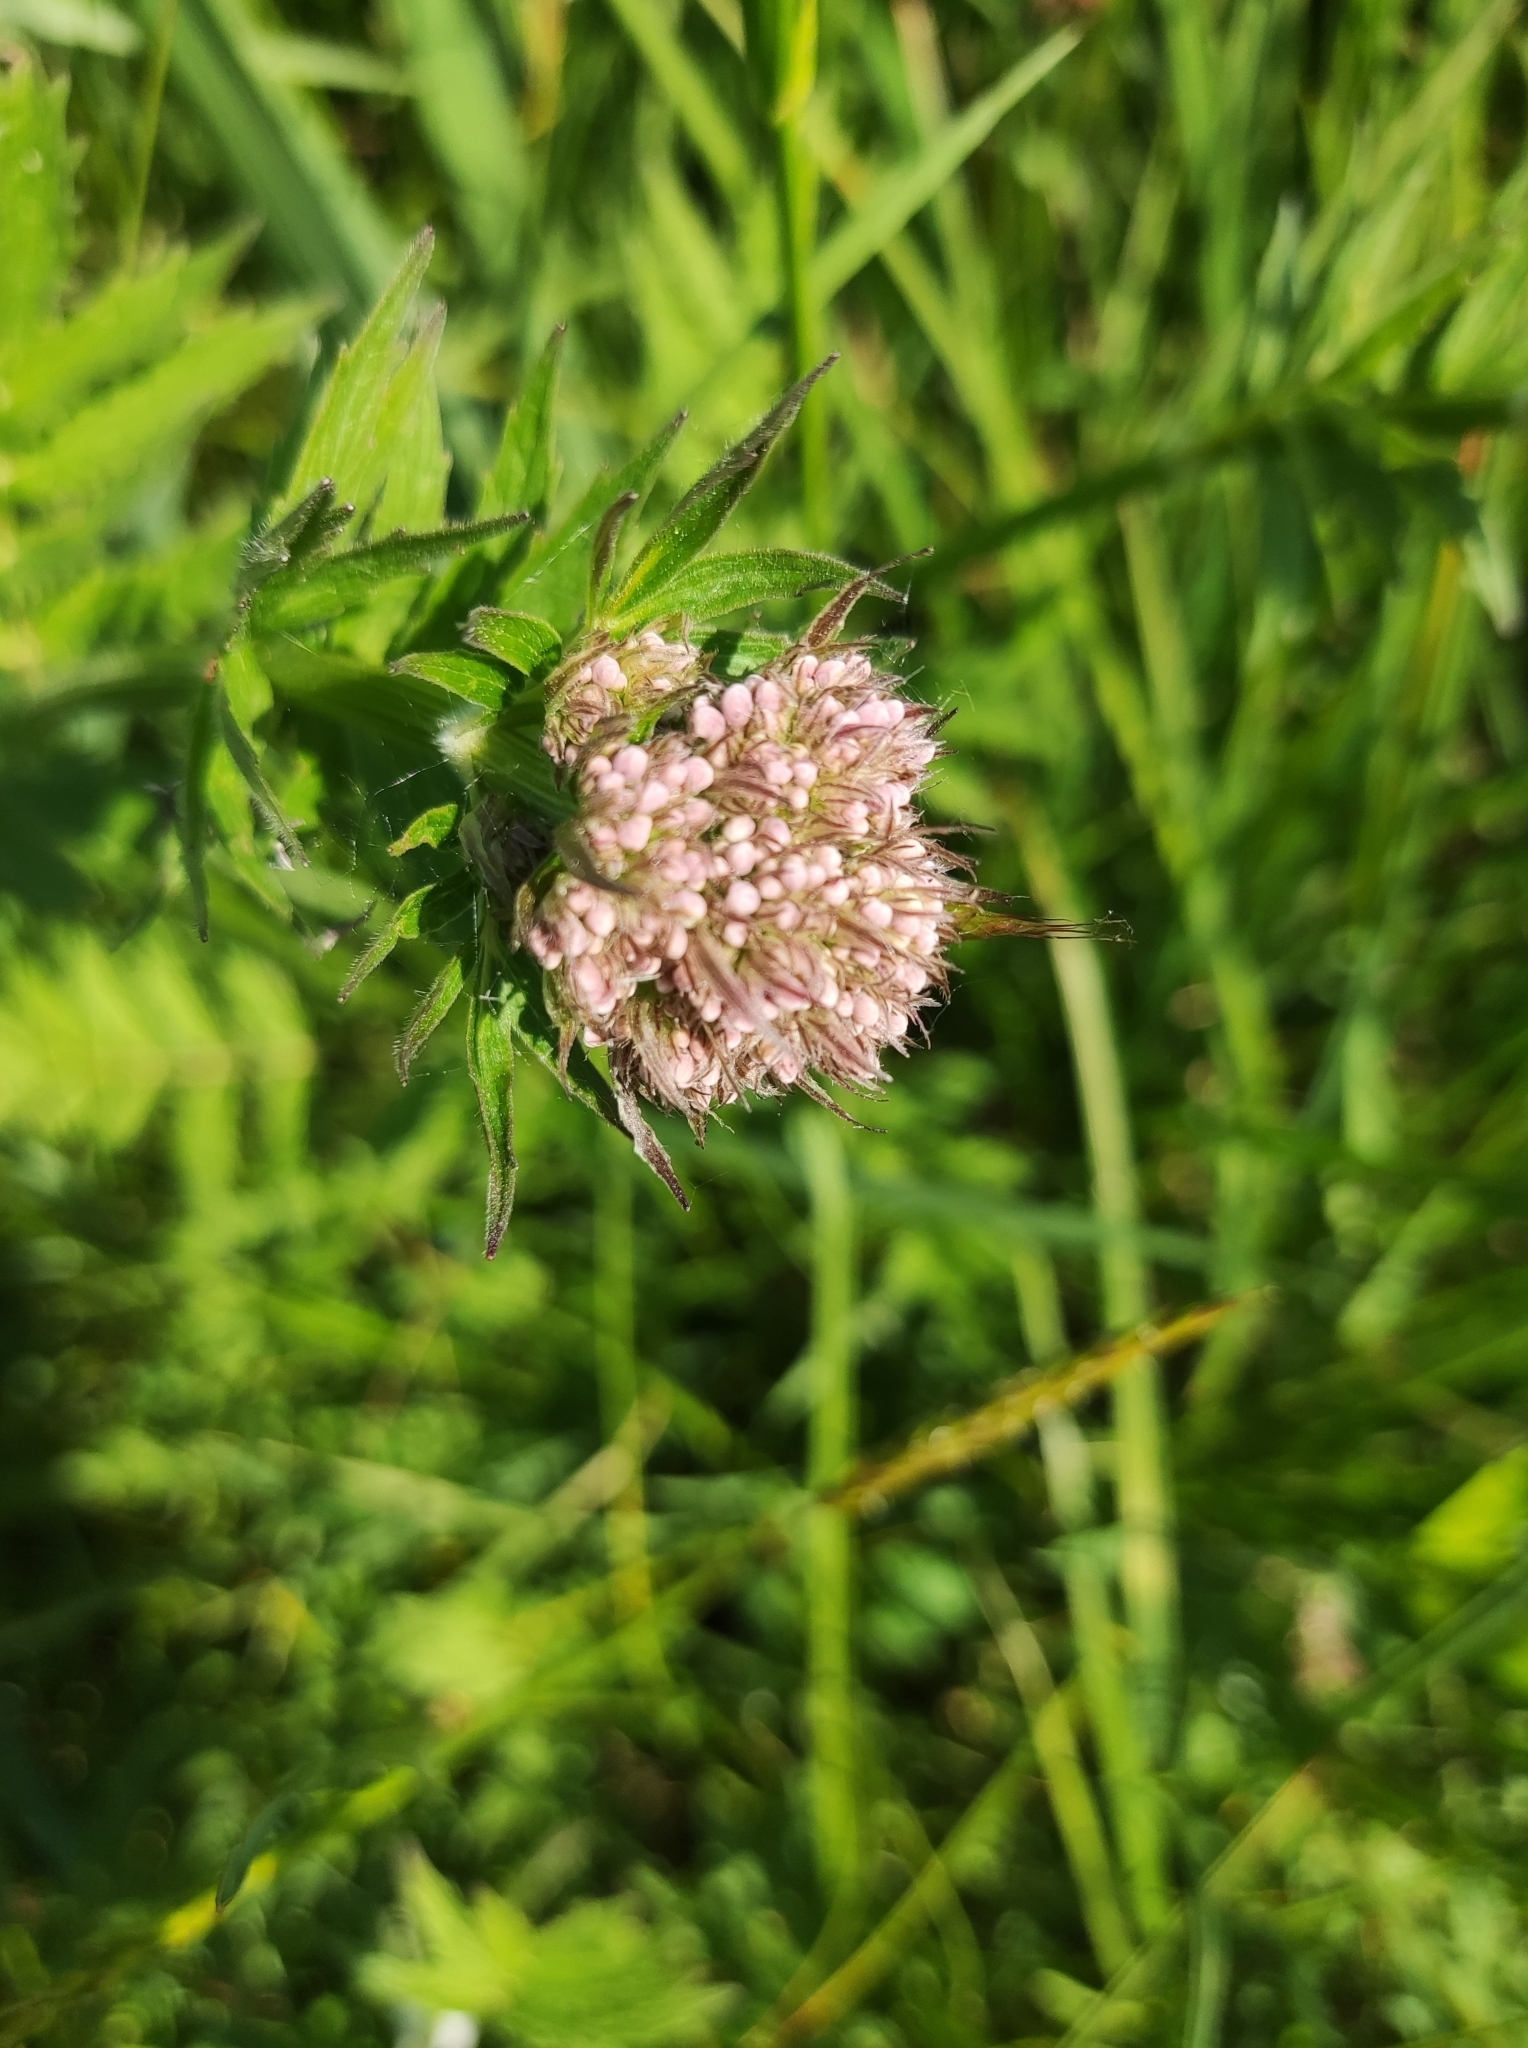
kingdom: Plantae
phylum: Tracheophyta
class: Magnoliopsida
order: Dipsacales
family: Caprifoliaceae
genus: Valeriana
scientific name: Valeriana officinalis
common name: Common valerian
